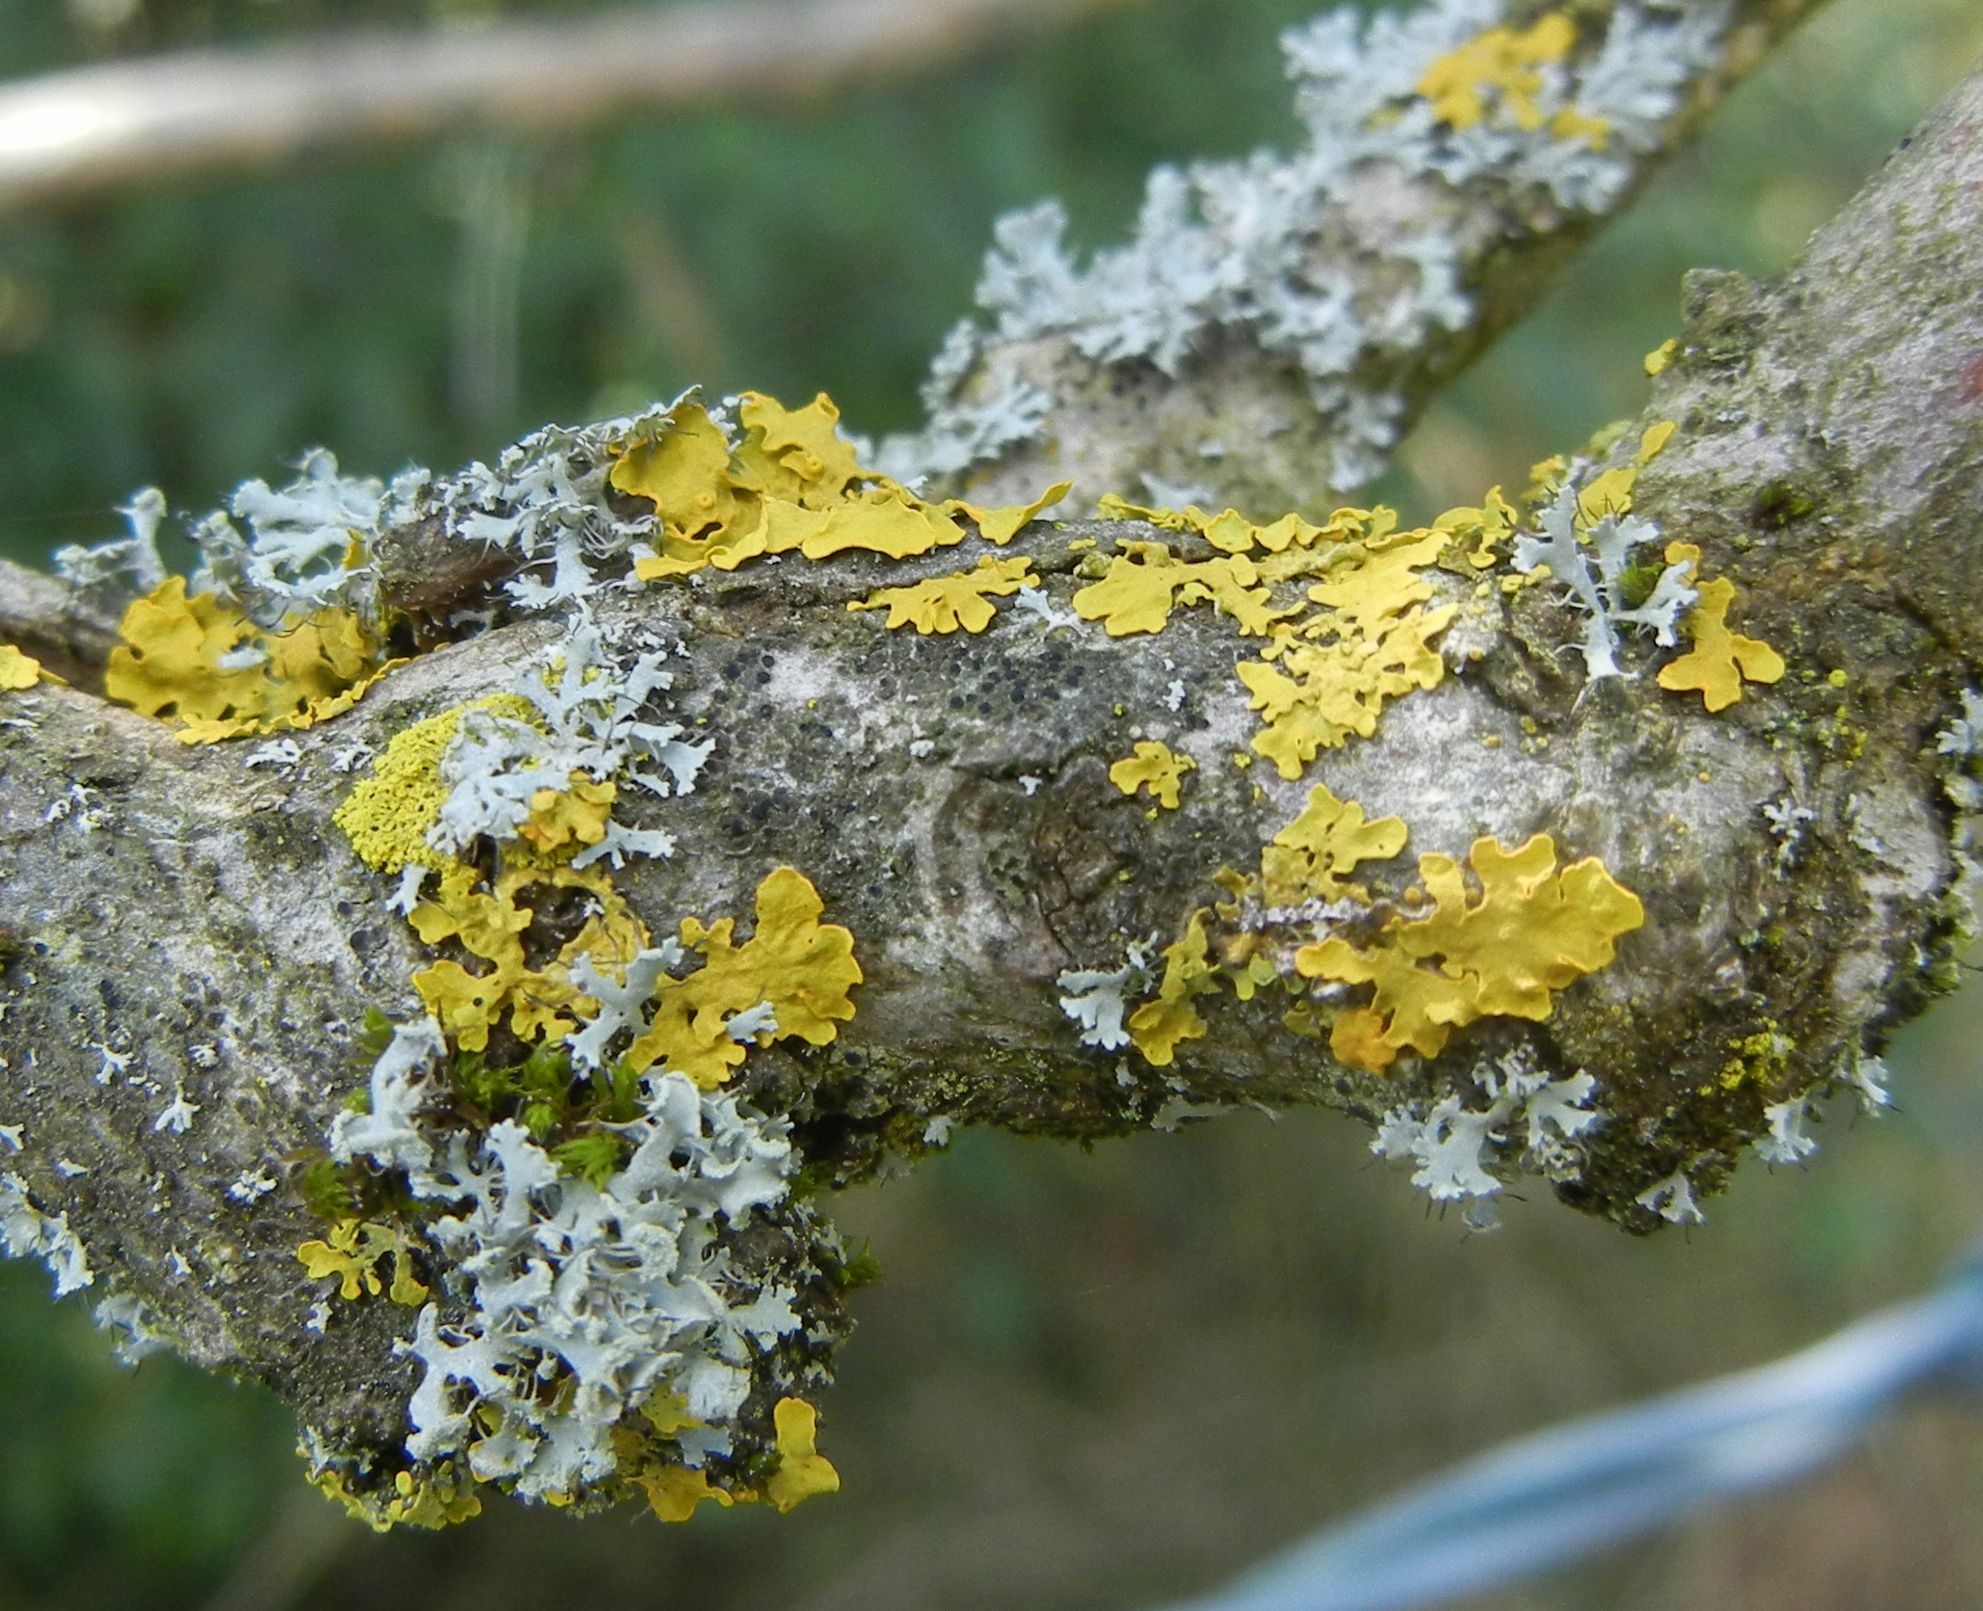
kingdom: Fungi
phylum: Ascomycota
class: Lecanoromycetes
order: Teloschistales
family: Teloschistaceae
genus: Xanthoria
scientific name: Xanthoria parietina
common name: Common orange lichen
